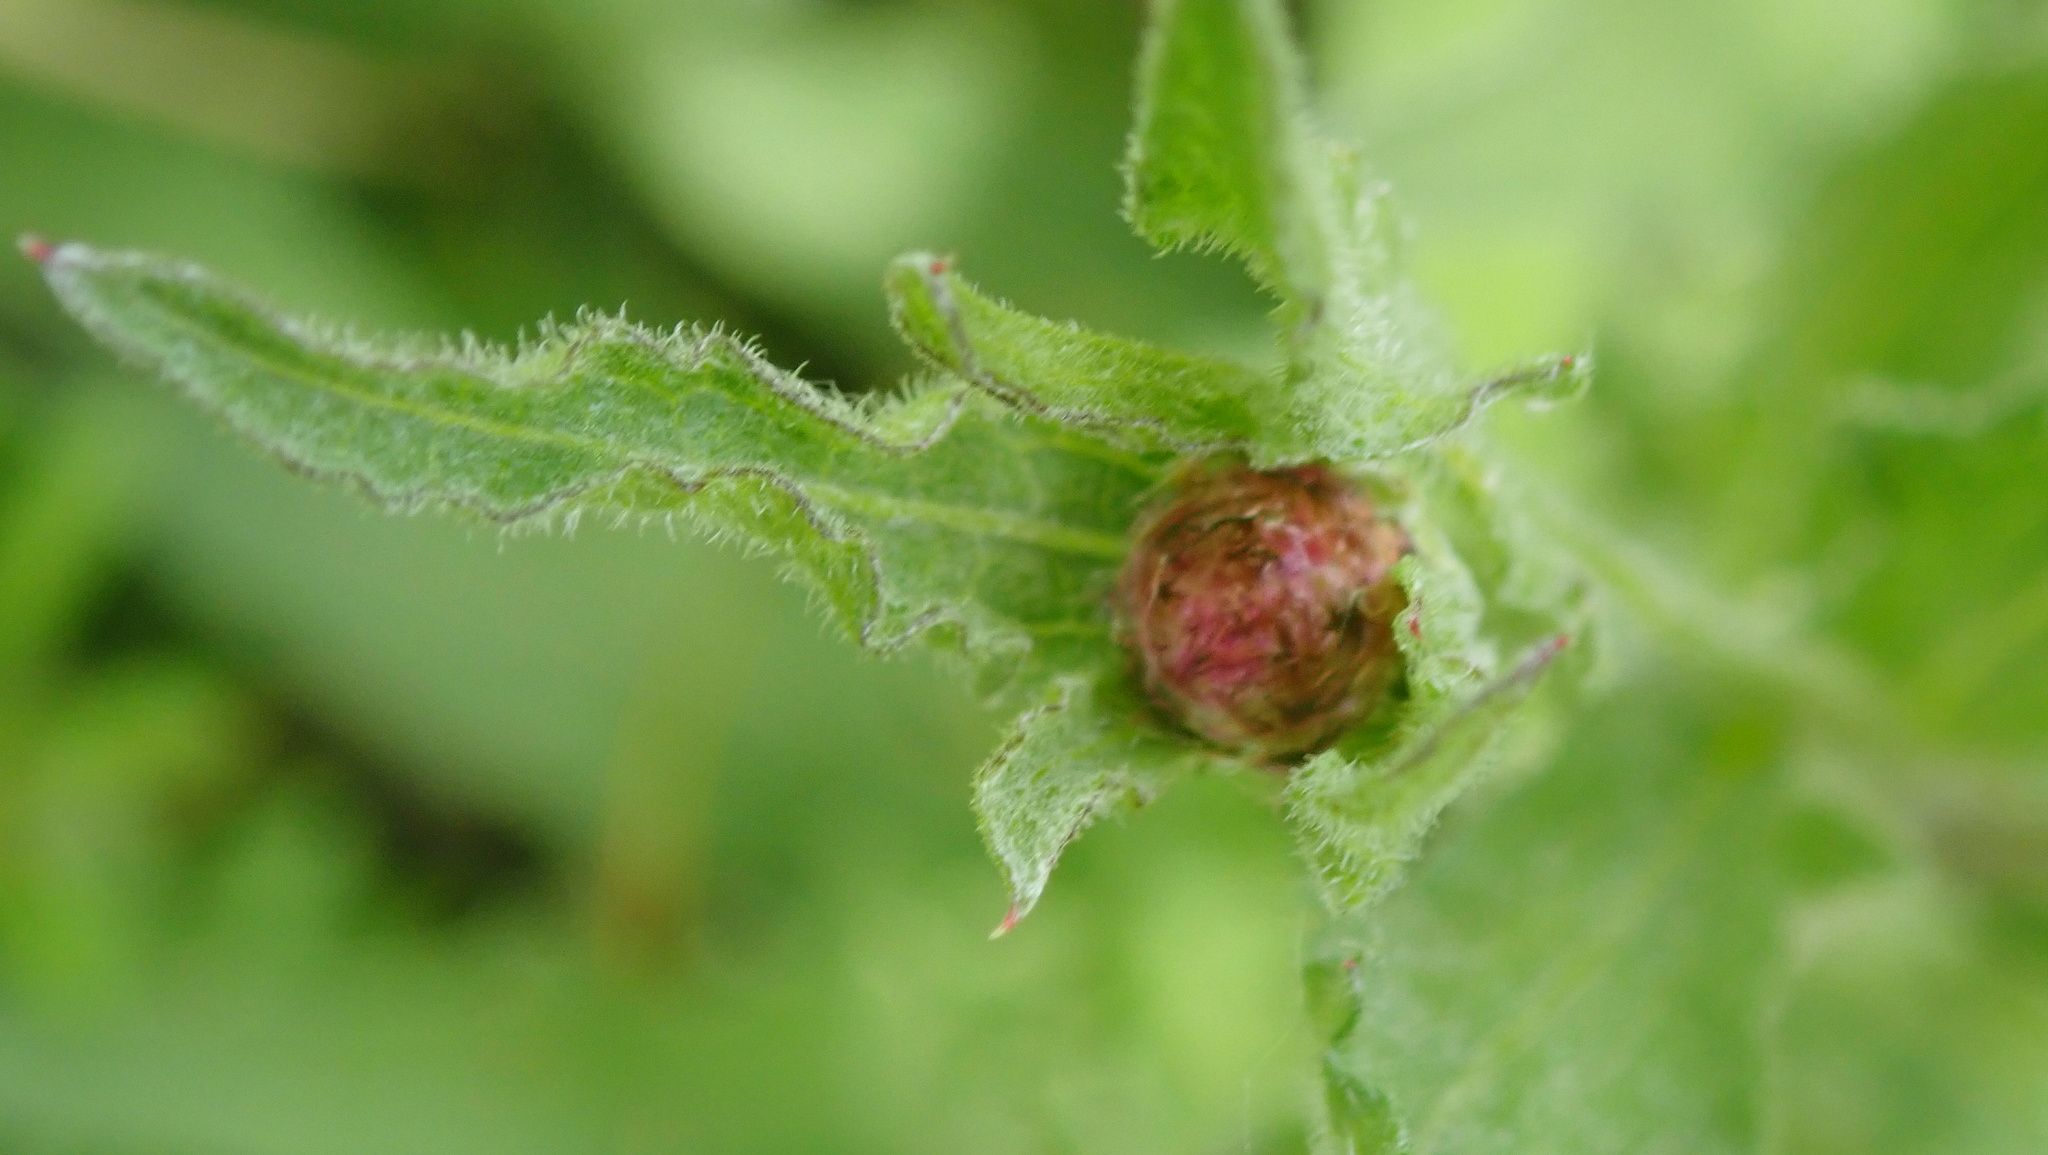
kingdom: Plantae
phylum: Tracheophyta
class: Magnoliopsida
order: Asterales
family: Asteraceae
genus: Centaurea
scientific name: Centaurea jacea
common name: Brown knapweed
